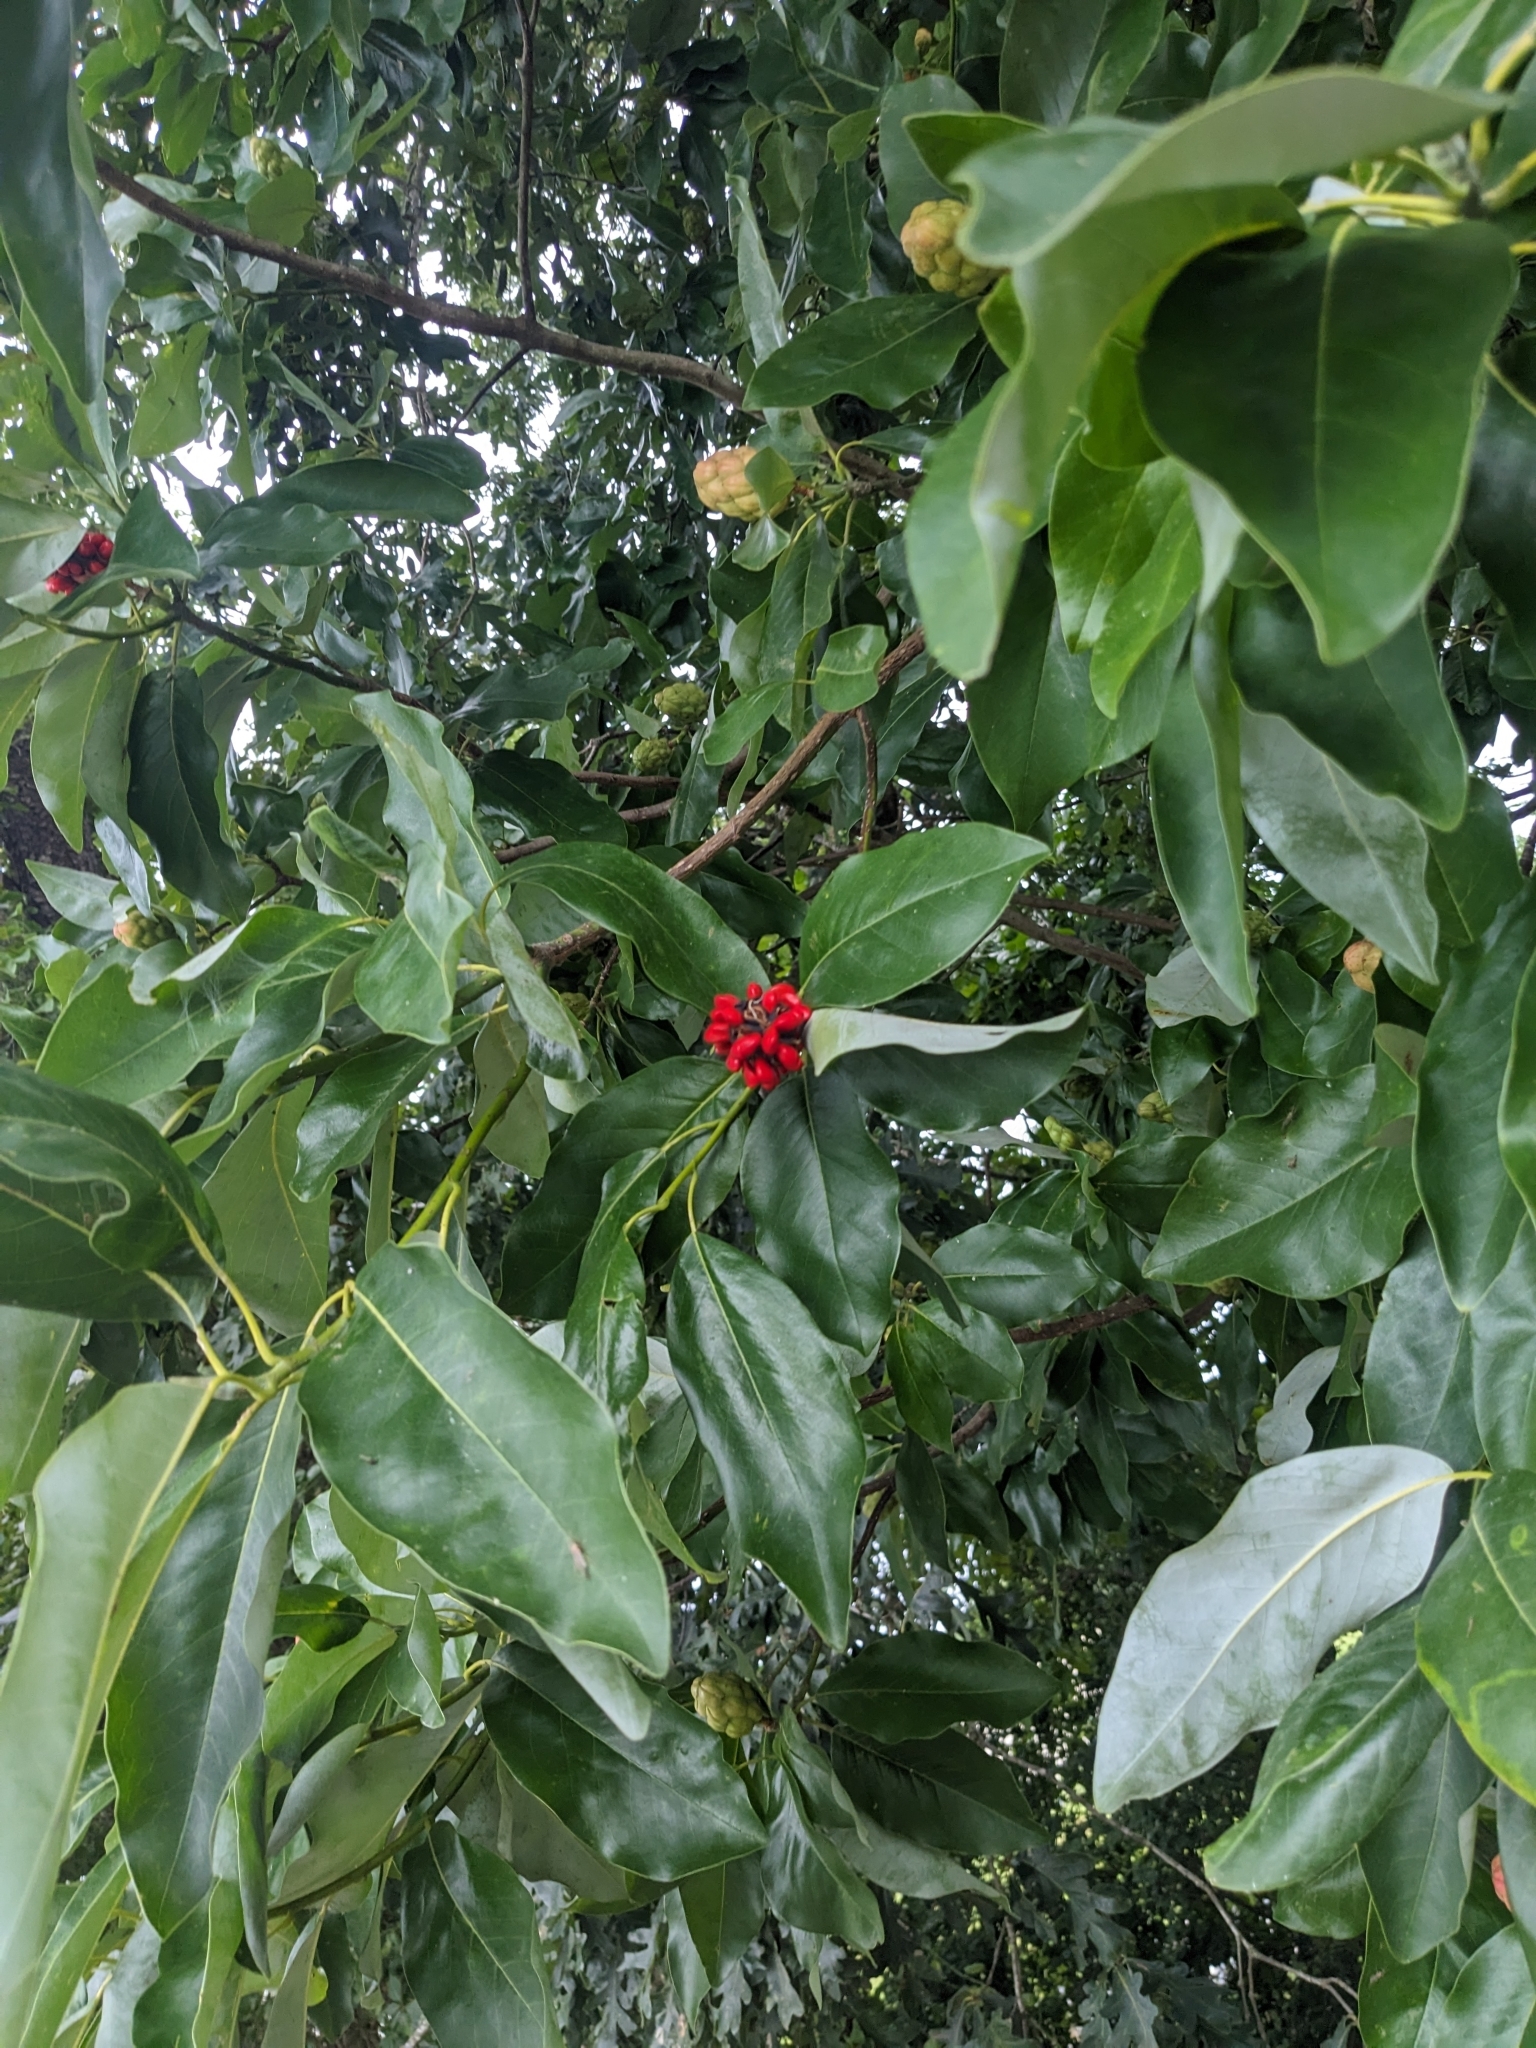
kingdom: Plantae
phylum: Tracheophyta
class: Magnoliopsida
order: Magnoliales
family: Magnoliaceae
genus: Magnolia
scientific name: Magnolia virginiana
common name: Swamp bay
